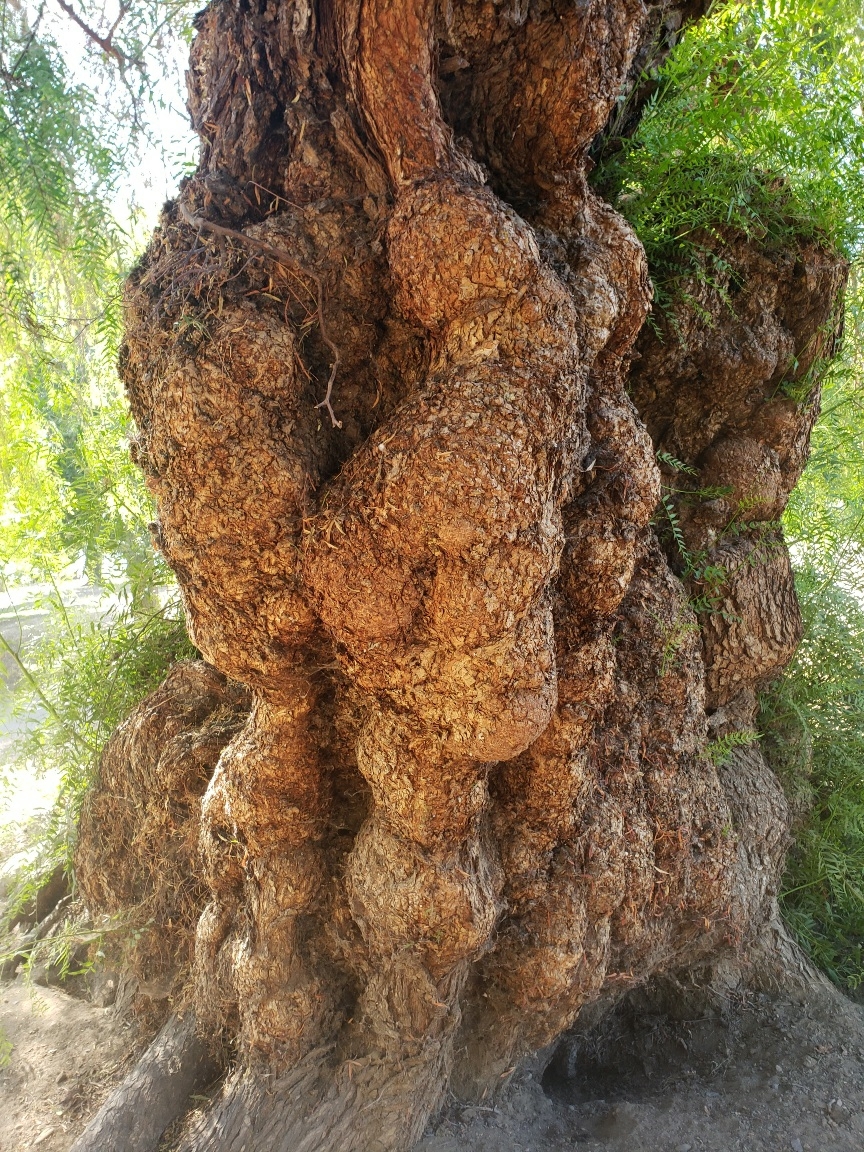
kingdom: Plantae
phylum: Tracheophyta
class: Magnoliopsida
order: Sapindales
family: Anacardiaceae
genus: Schinus
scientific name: Schinus molle
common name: Peruvian peppertree
